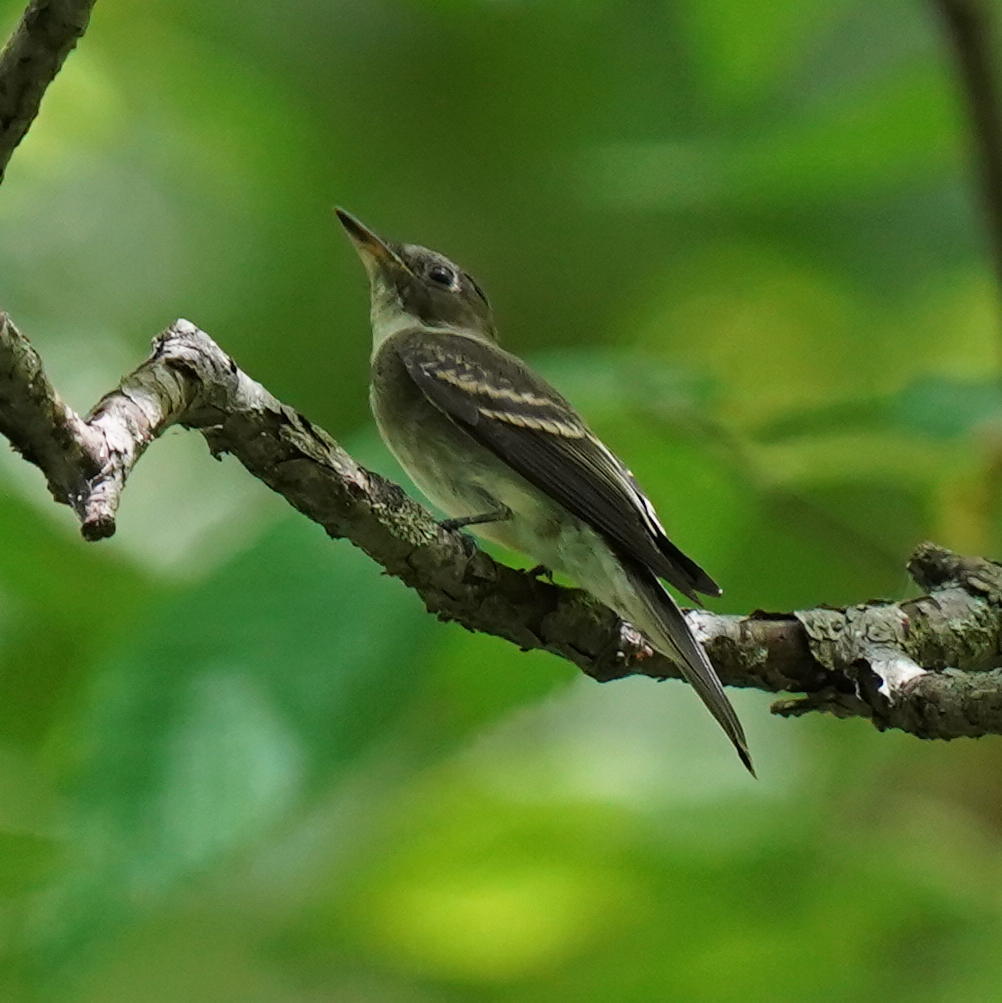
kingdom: Animalia
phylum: Chordata
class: Aves
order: Passeriformes
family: Tyrannidae
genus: Contopus
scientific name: Contopus virens
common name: Eastern wood-pewee
